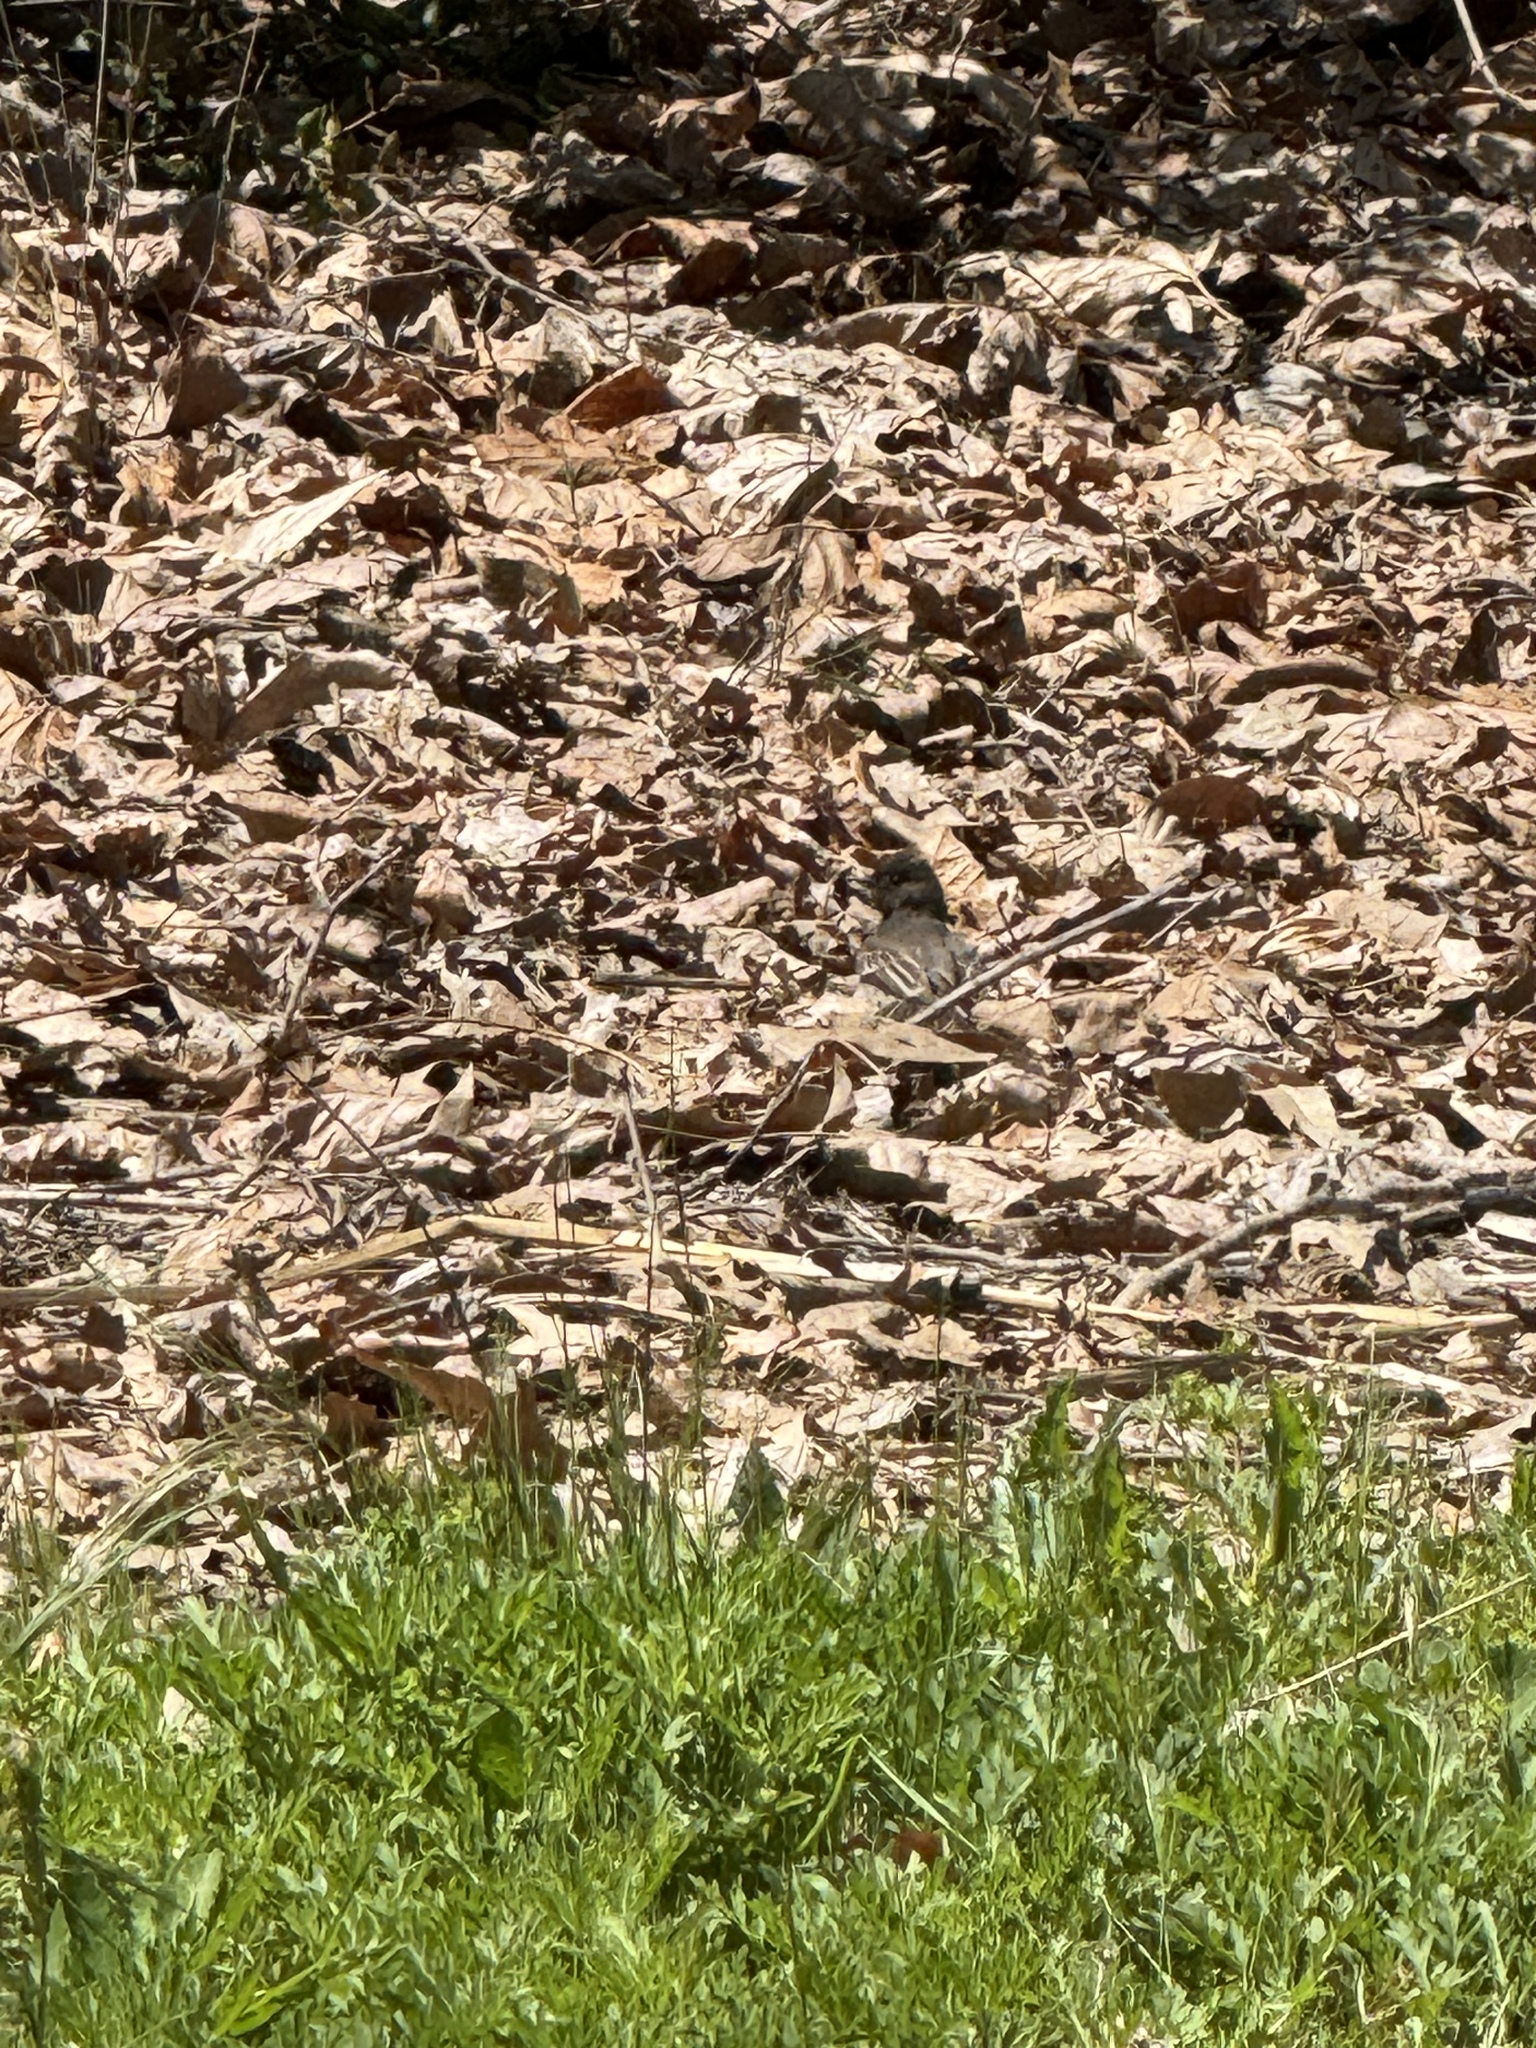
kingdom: Animalia
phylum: Chordata
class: Aves
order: Passeriformes
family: Tyrannidae
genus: Sayornis
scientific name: Sayornis nigricans
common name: Black phoebe
